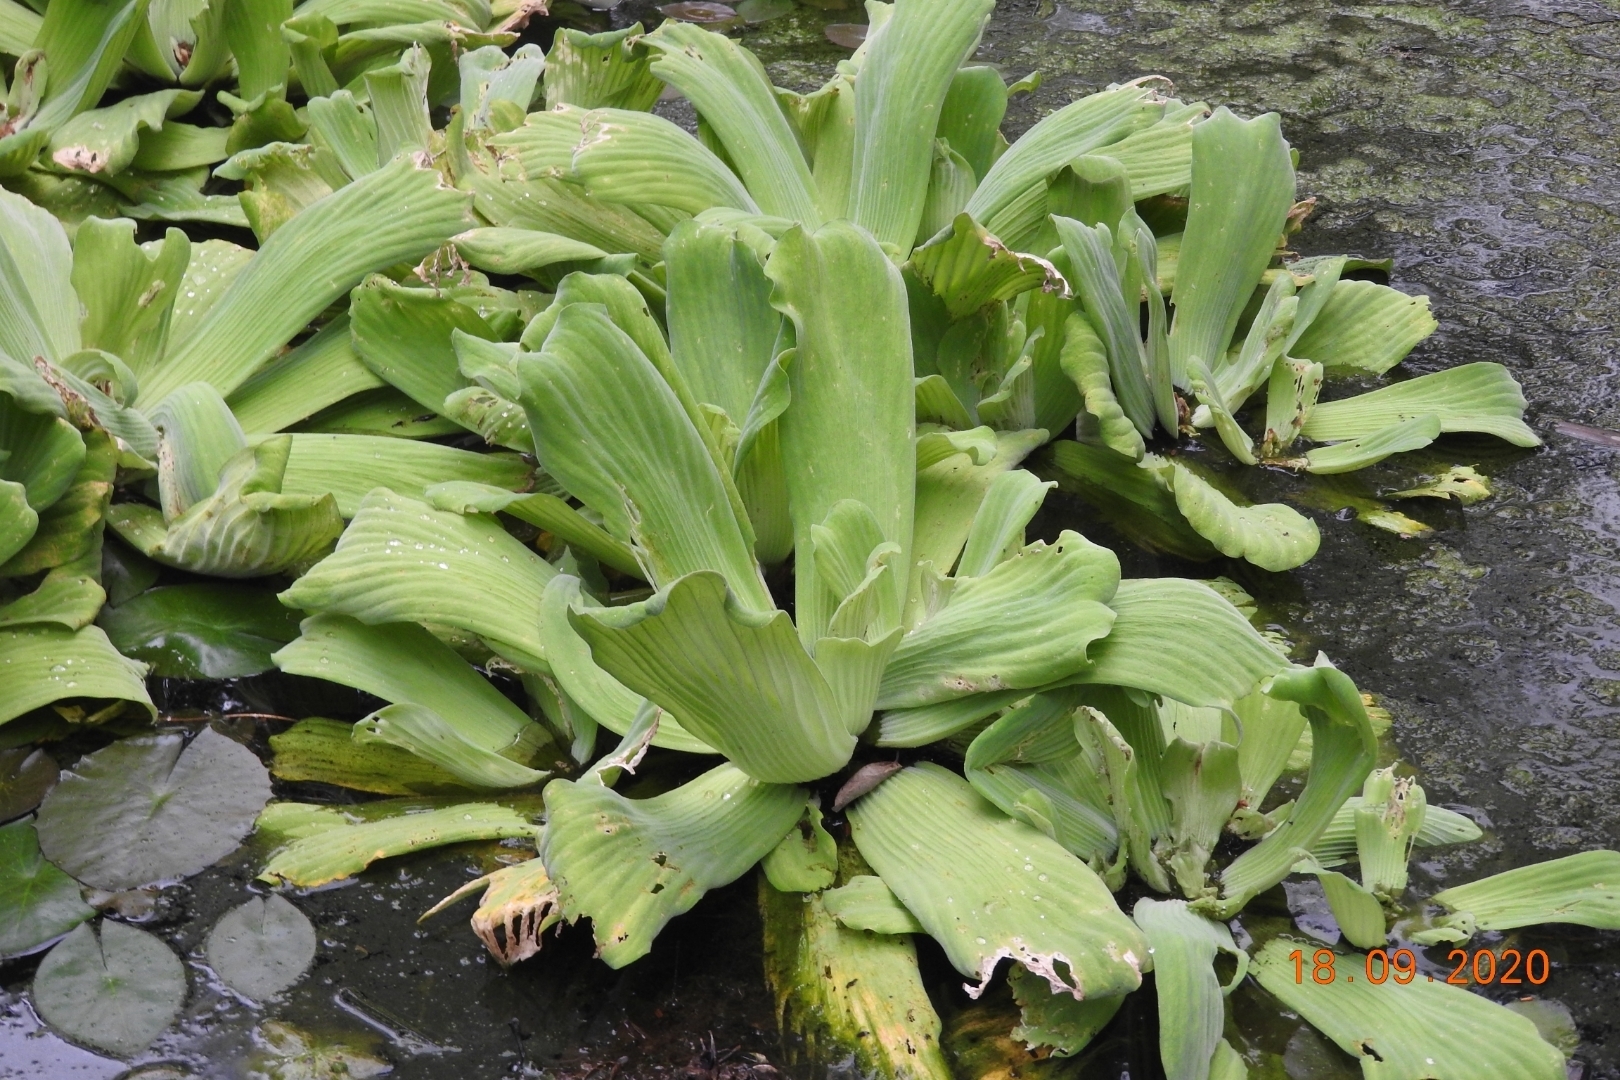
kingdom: Plantae
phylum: Tracheophyta
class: Liliopsida
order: Alismatales
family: Araceae
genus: Pistia
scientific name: Pistia stratiotes
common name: Water lettuce
